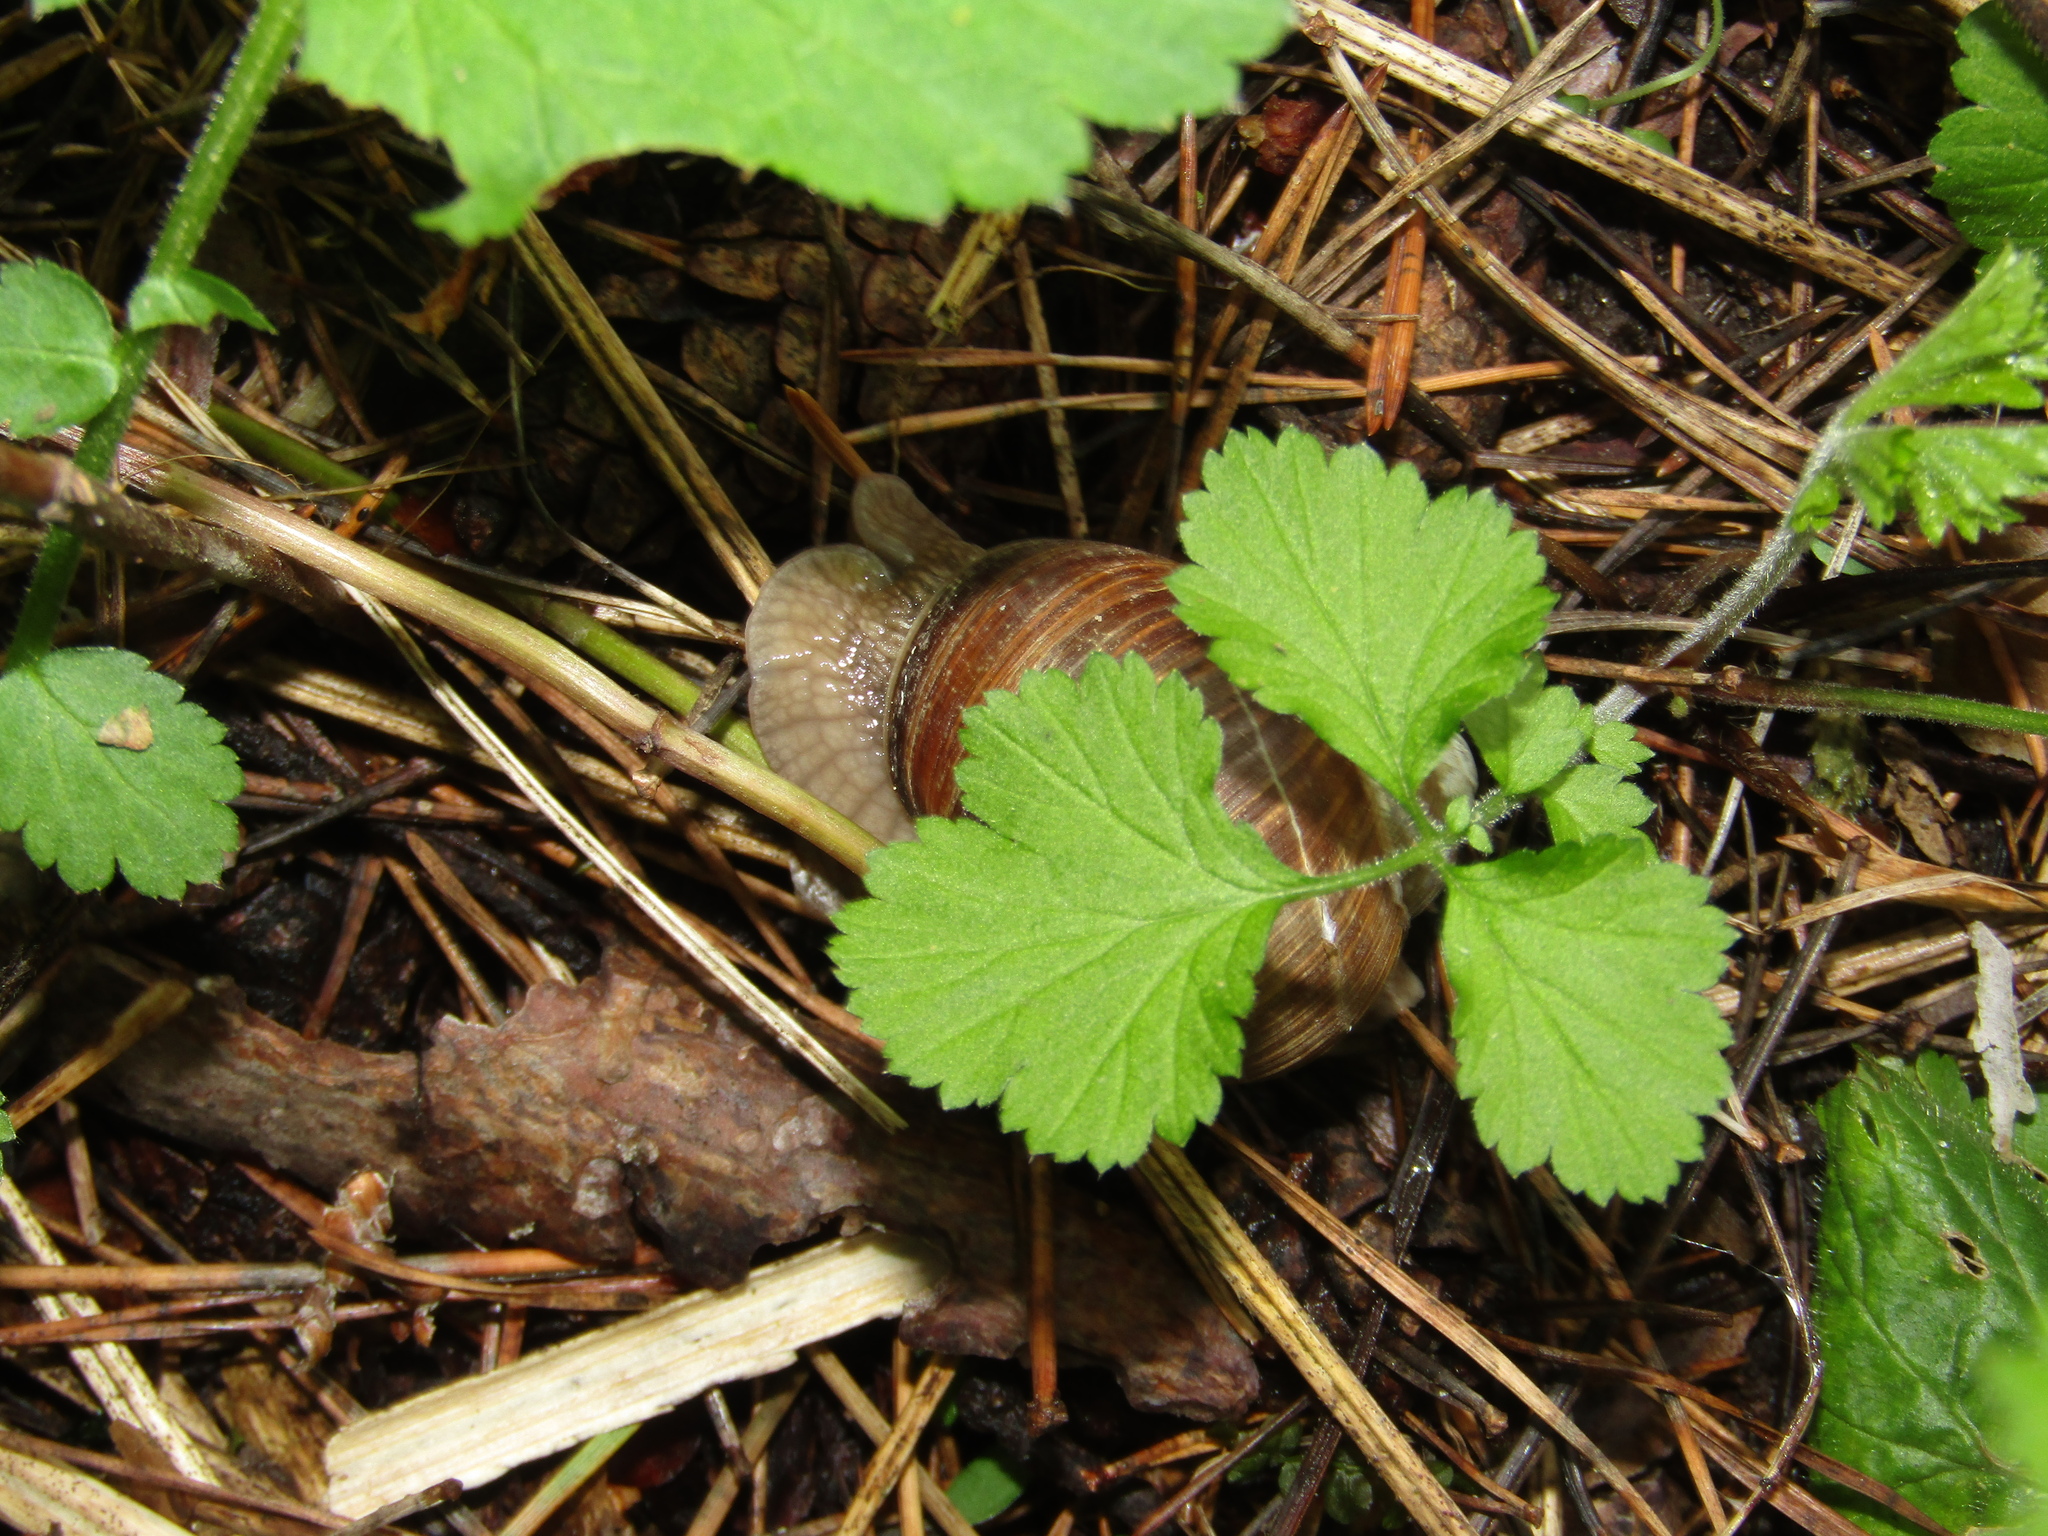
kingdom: Animalia
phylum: Mollusca
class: Gastropoda
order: Stylommatophora
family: Helicidae
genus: Helix
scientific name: Helix pomatia
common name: Roman snail
